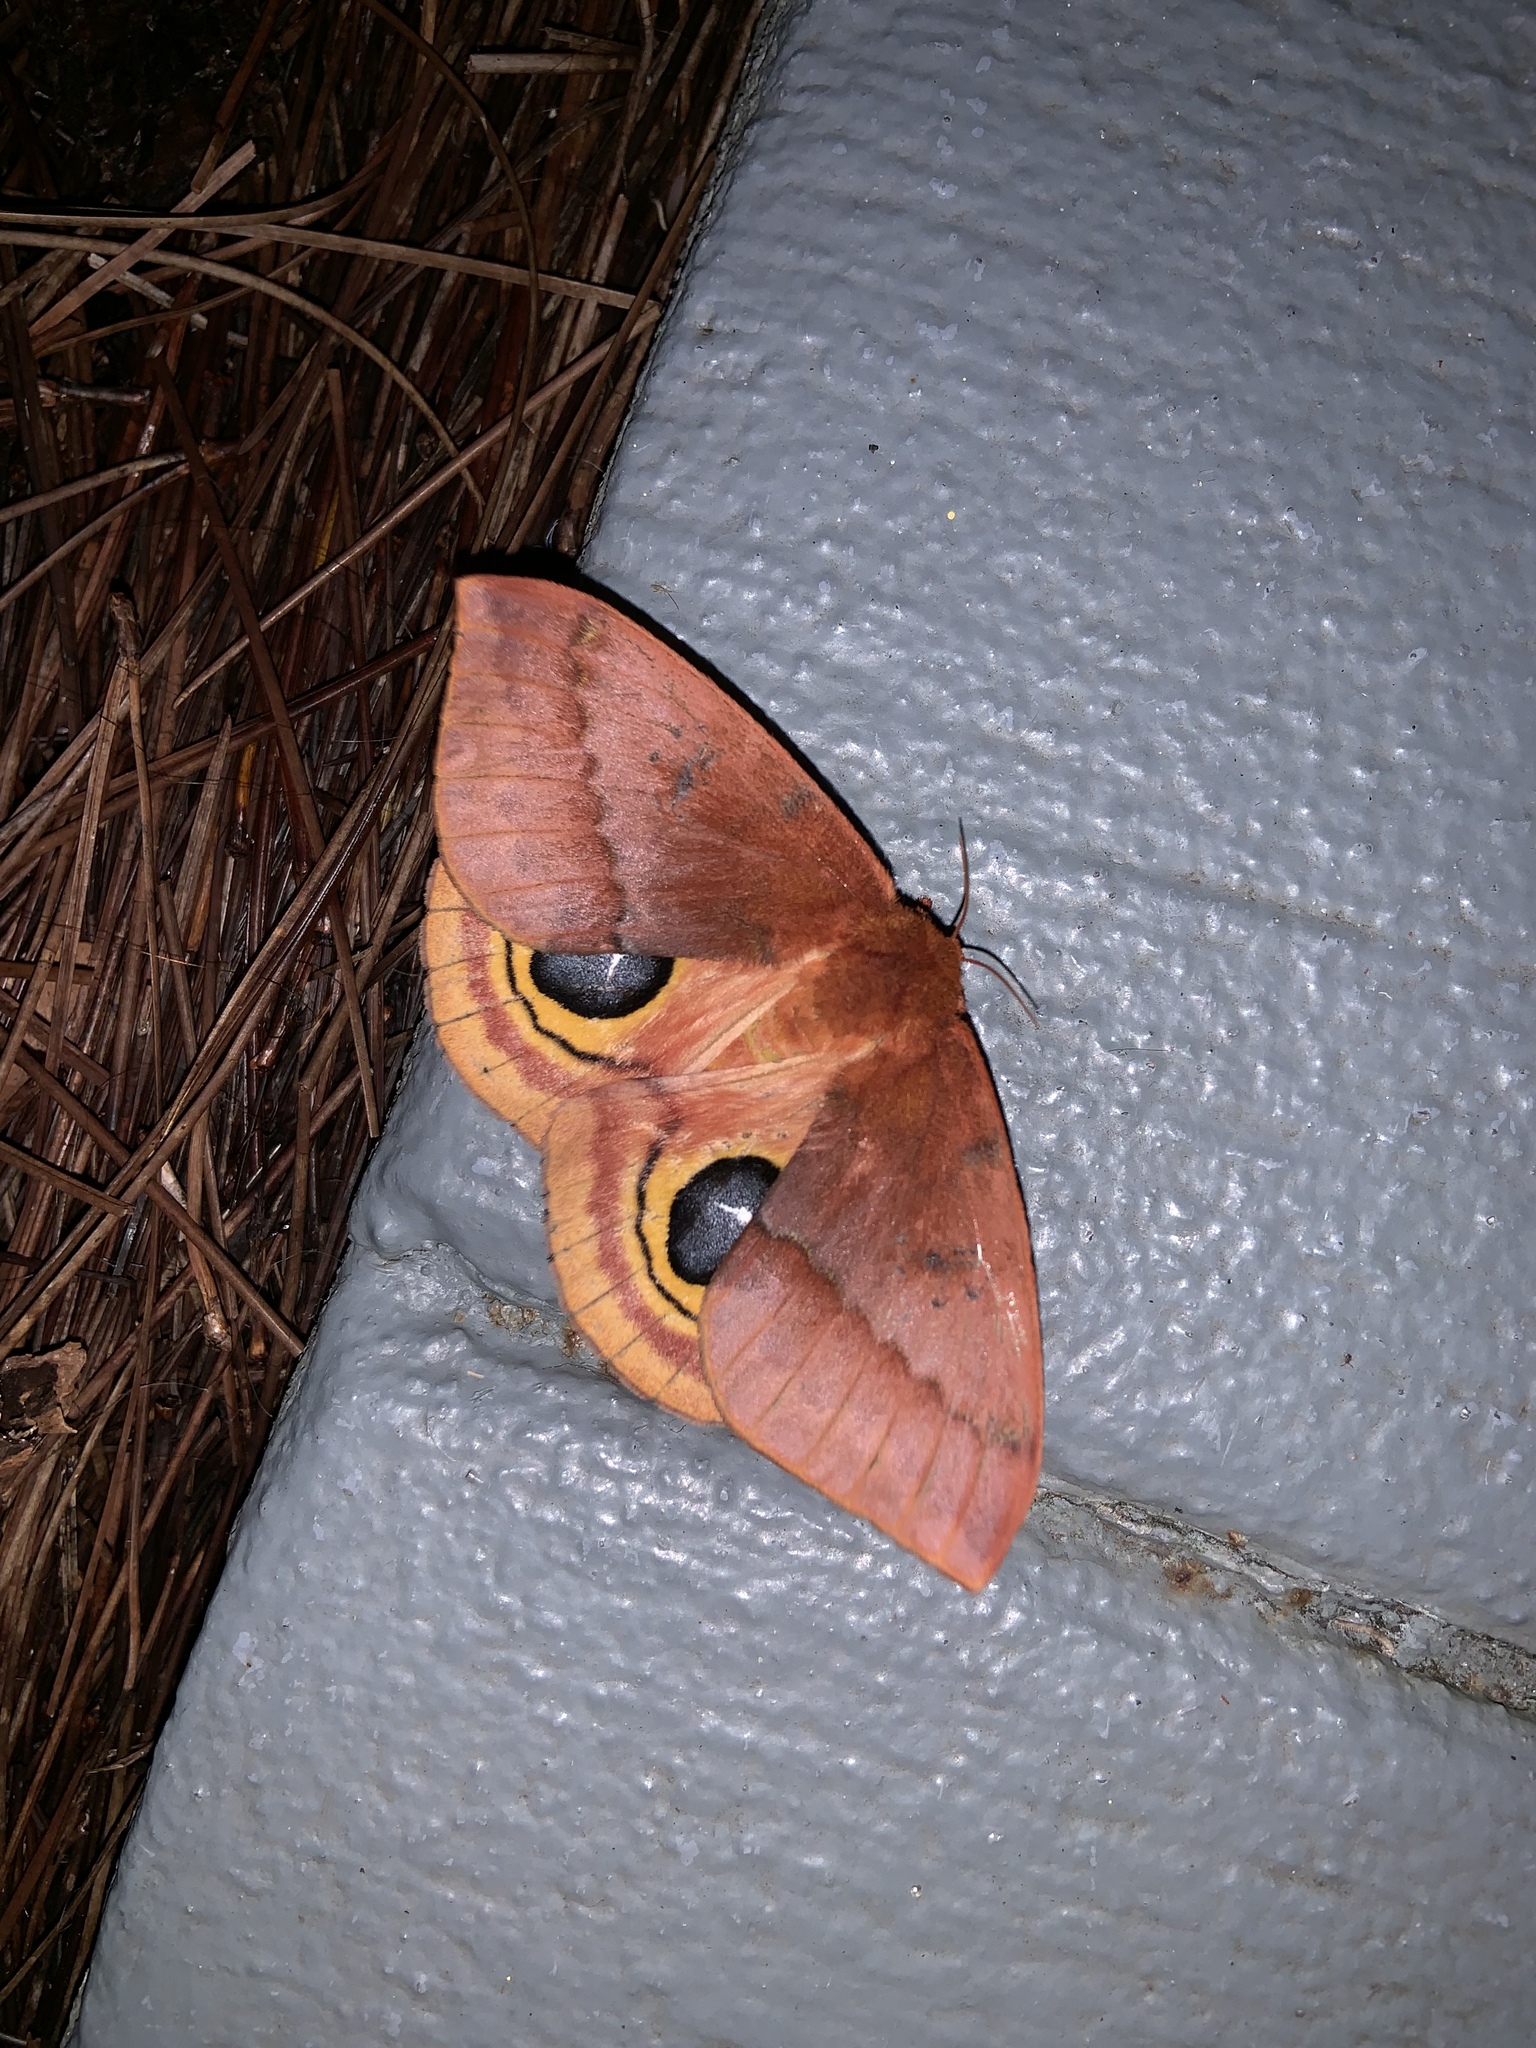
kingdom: Animalia
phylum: Arthropoda
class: Insecta
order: Lepidoptera
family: Saturniidae
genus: Automeris
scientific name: Automeris io
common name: Io moth
